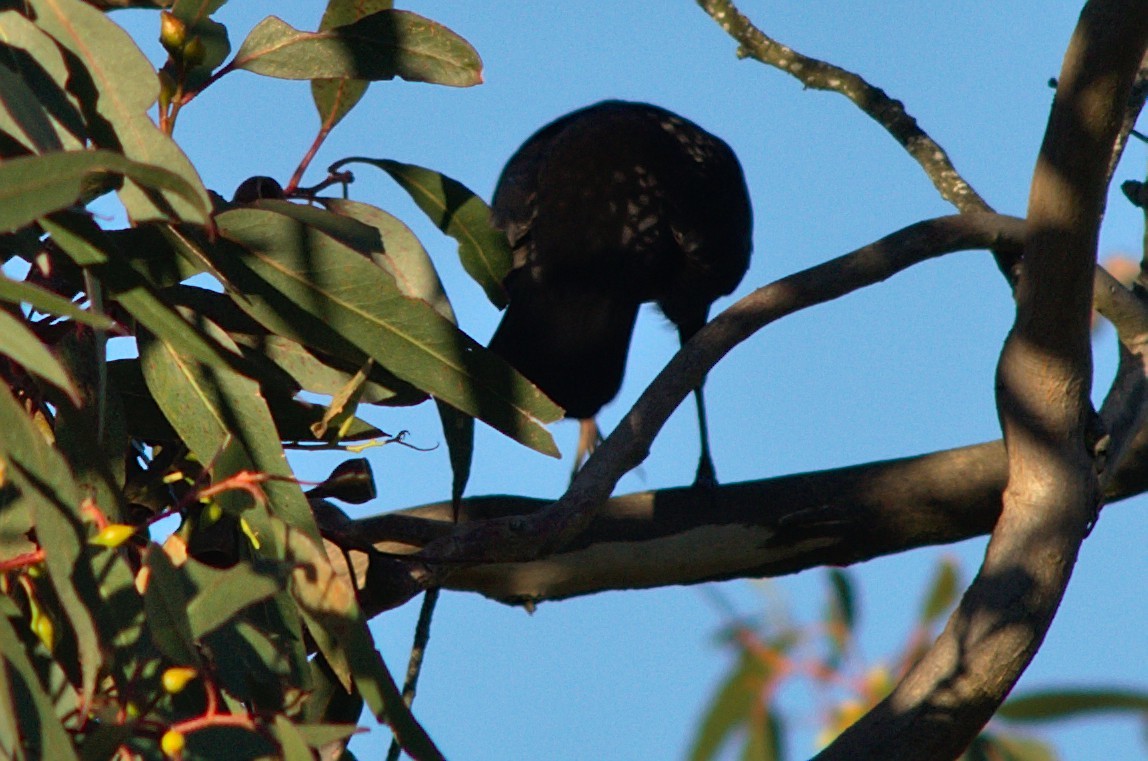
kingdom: Animalia
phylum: Chordata
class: Aves
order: Passeriformes
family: Turdidae
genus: Turdus
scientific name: Turdus merula
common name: Common blackbird
